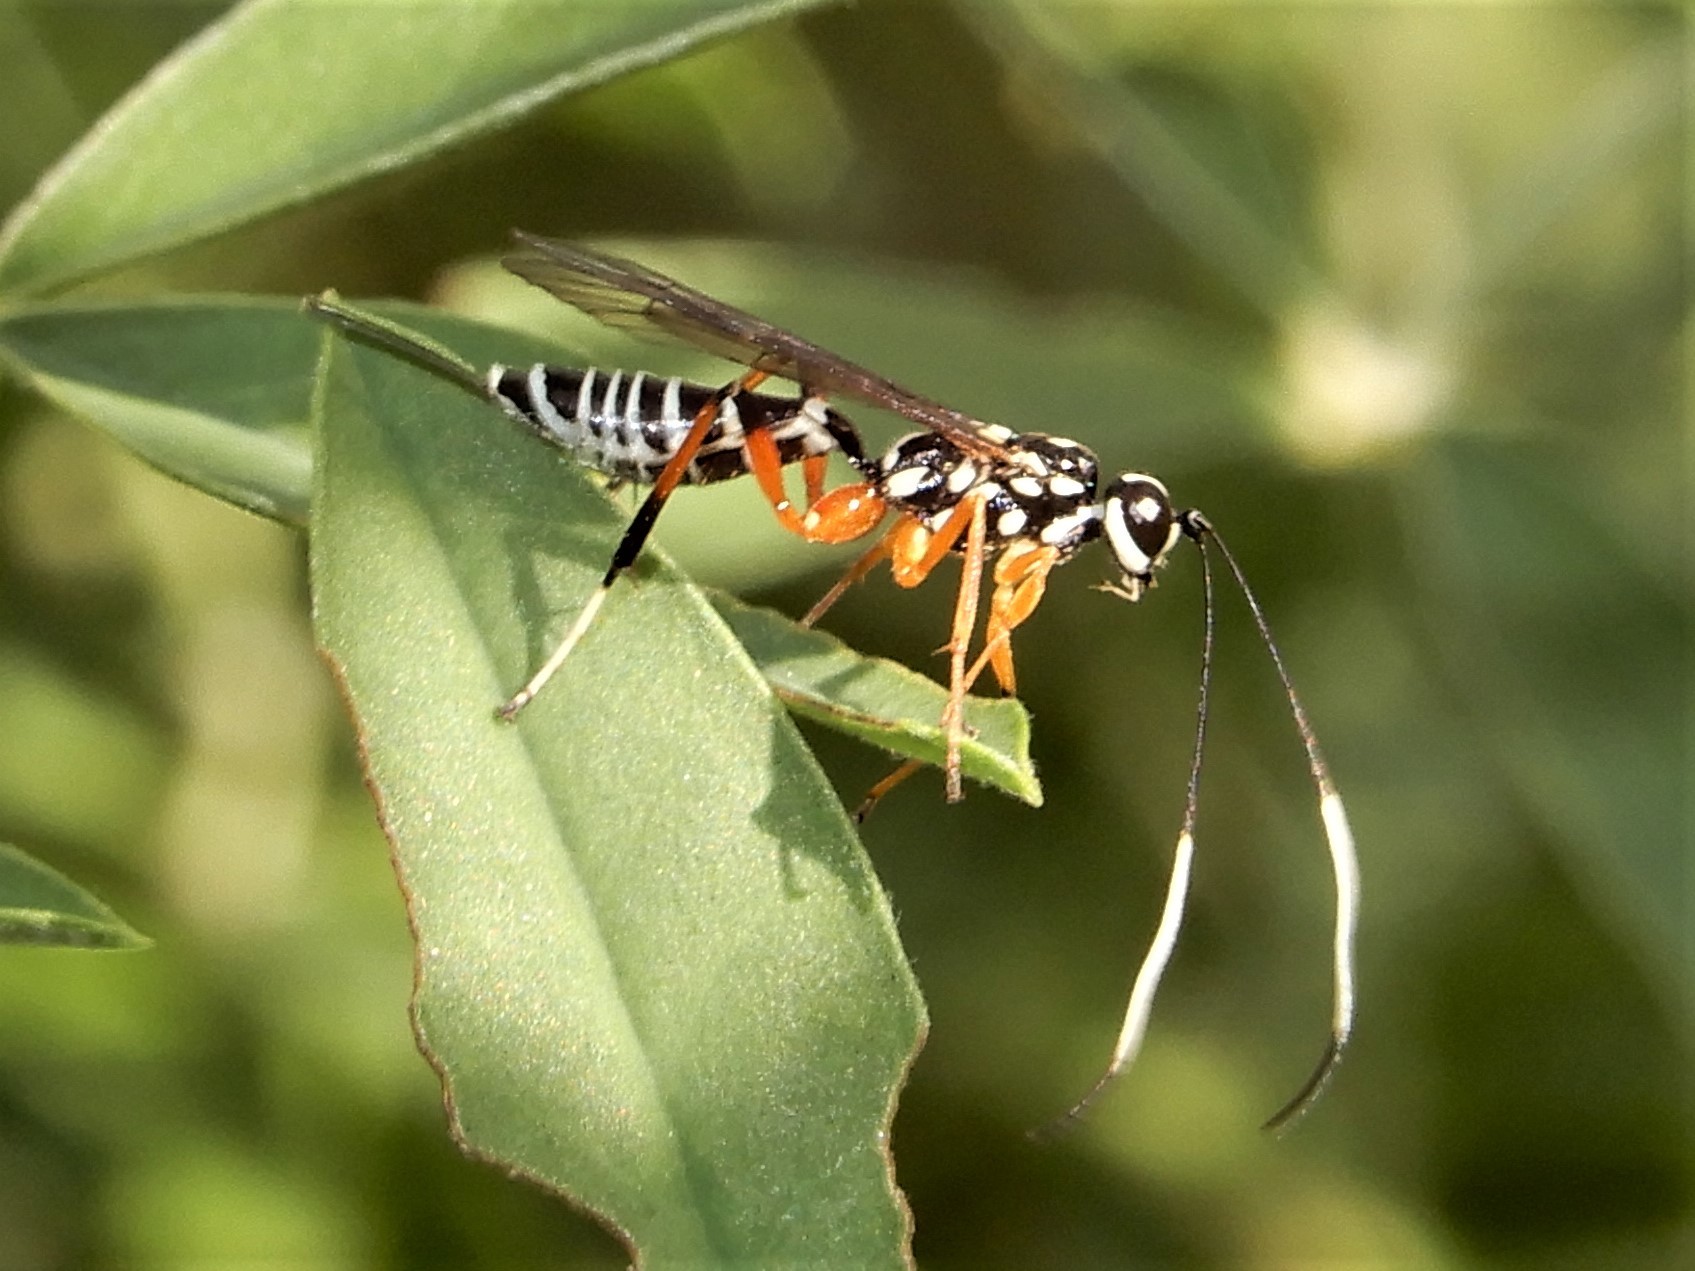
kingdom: Animalia
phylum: Arthropoda
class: Insecta
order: Hymenoptera
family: Ichneumonidae
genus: Xanthocryptus
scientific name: Xanthocryptus novozealandicus
